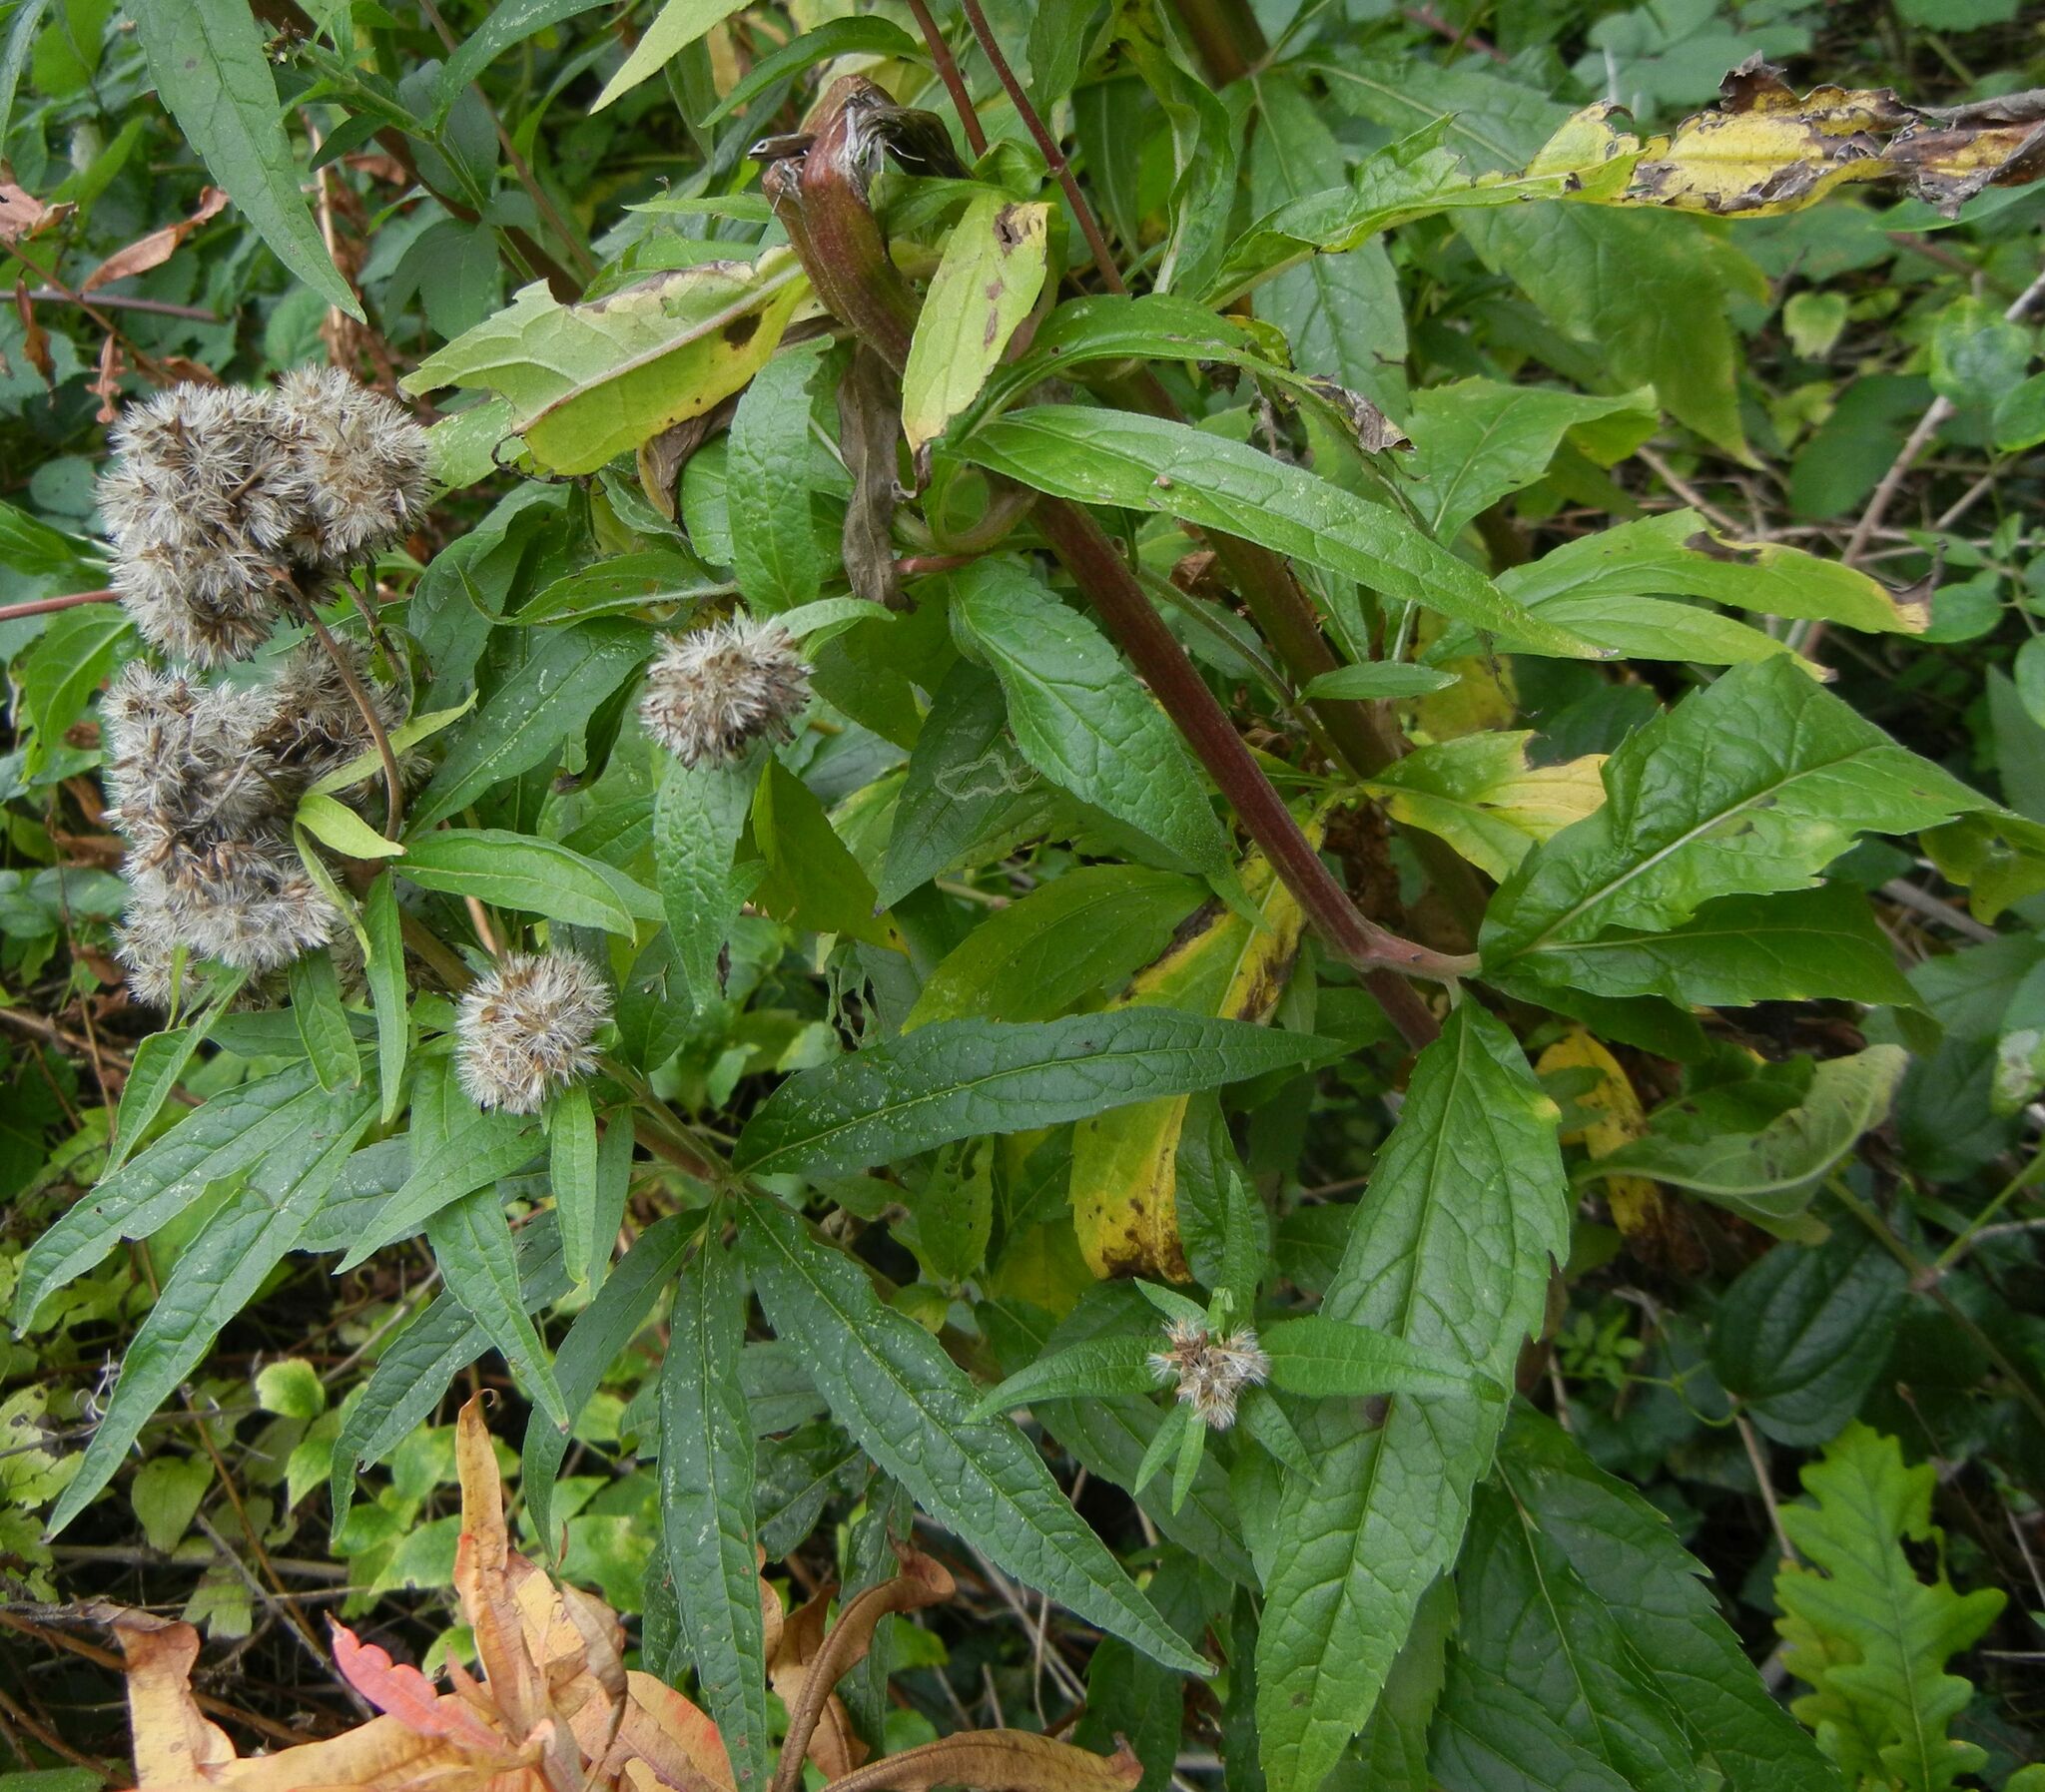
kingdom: Plantae
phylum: Tracheophyta
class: Magnoliopsida
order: Asterales
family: Asteraceae
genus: Eupatorium
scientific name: Eupatorium cannabinum
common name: Hemp-agrimony
